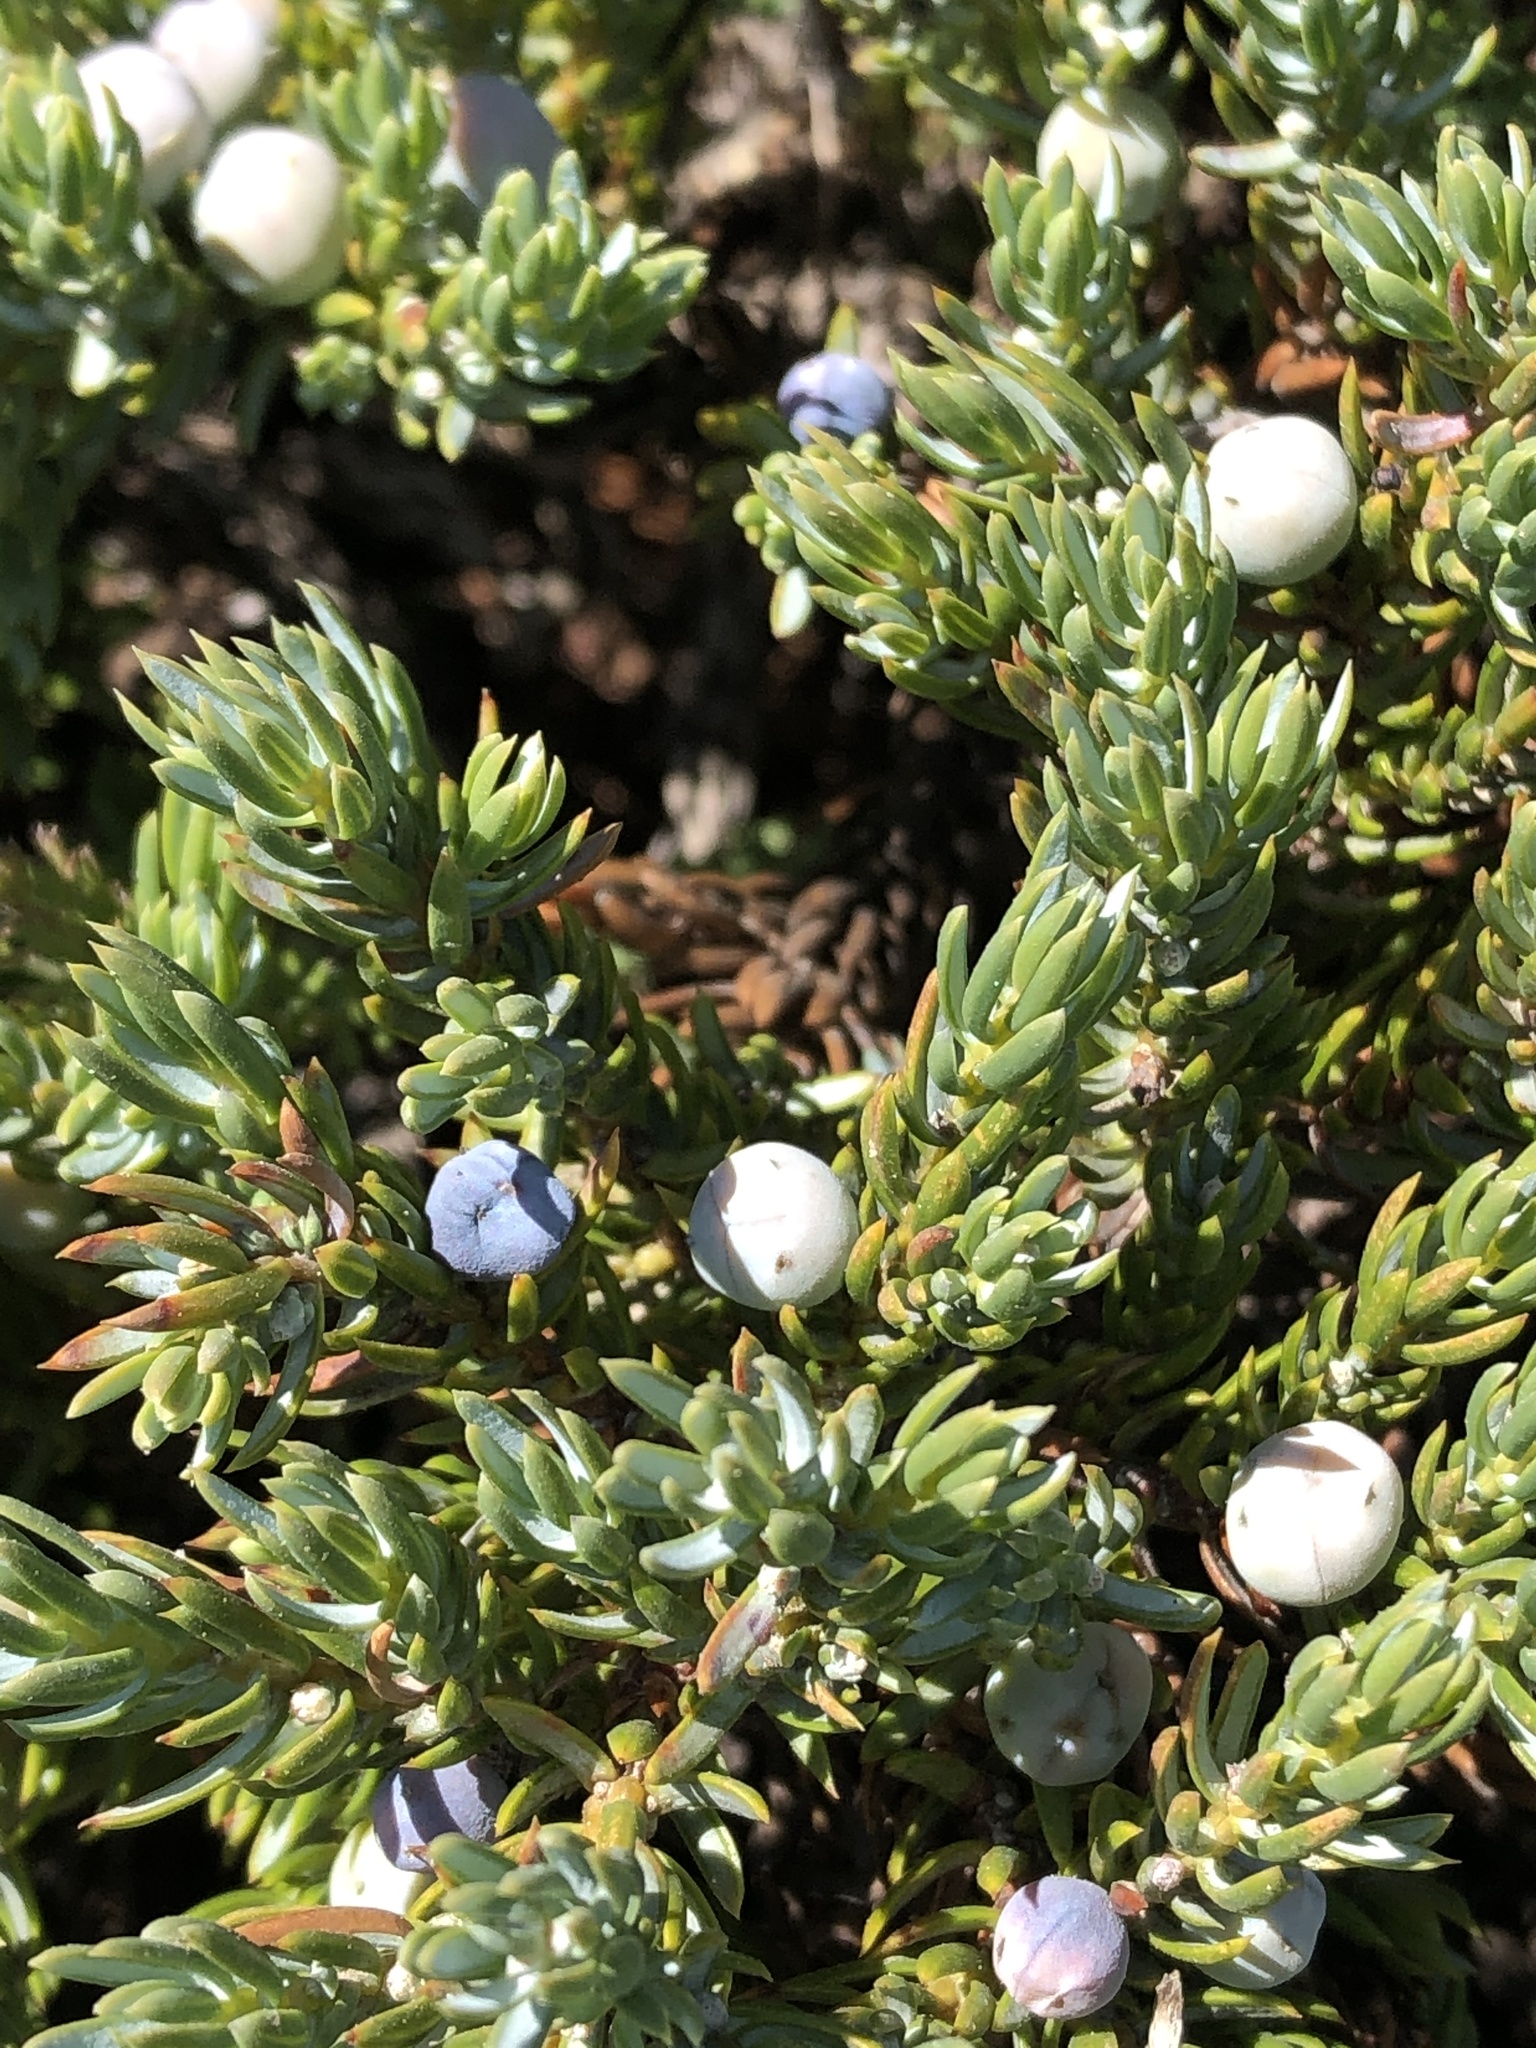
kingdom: Plantae
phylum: Tracheophyta
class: Pinopsida
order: Pinales
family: Cupressaceae
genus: Juniperus
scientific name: Juniperus communis
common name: Common juniper
